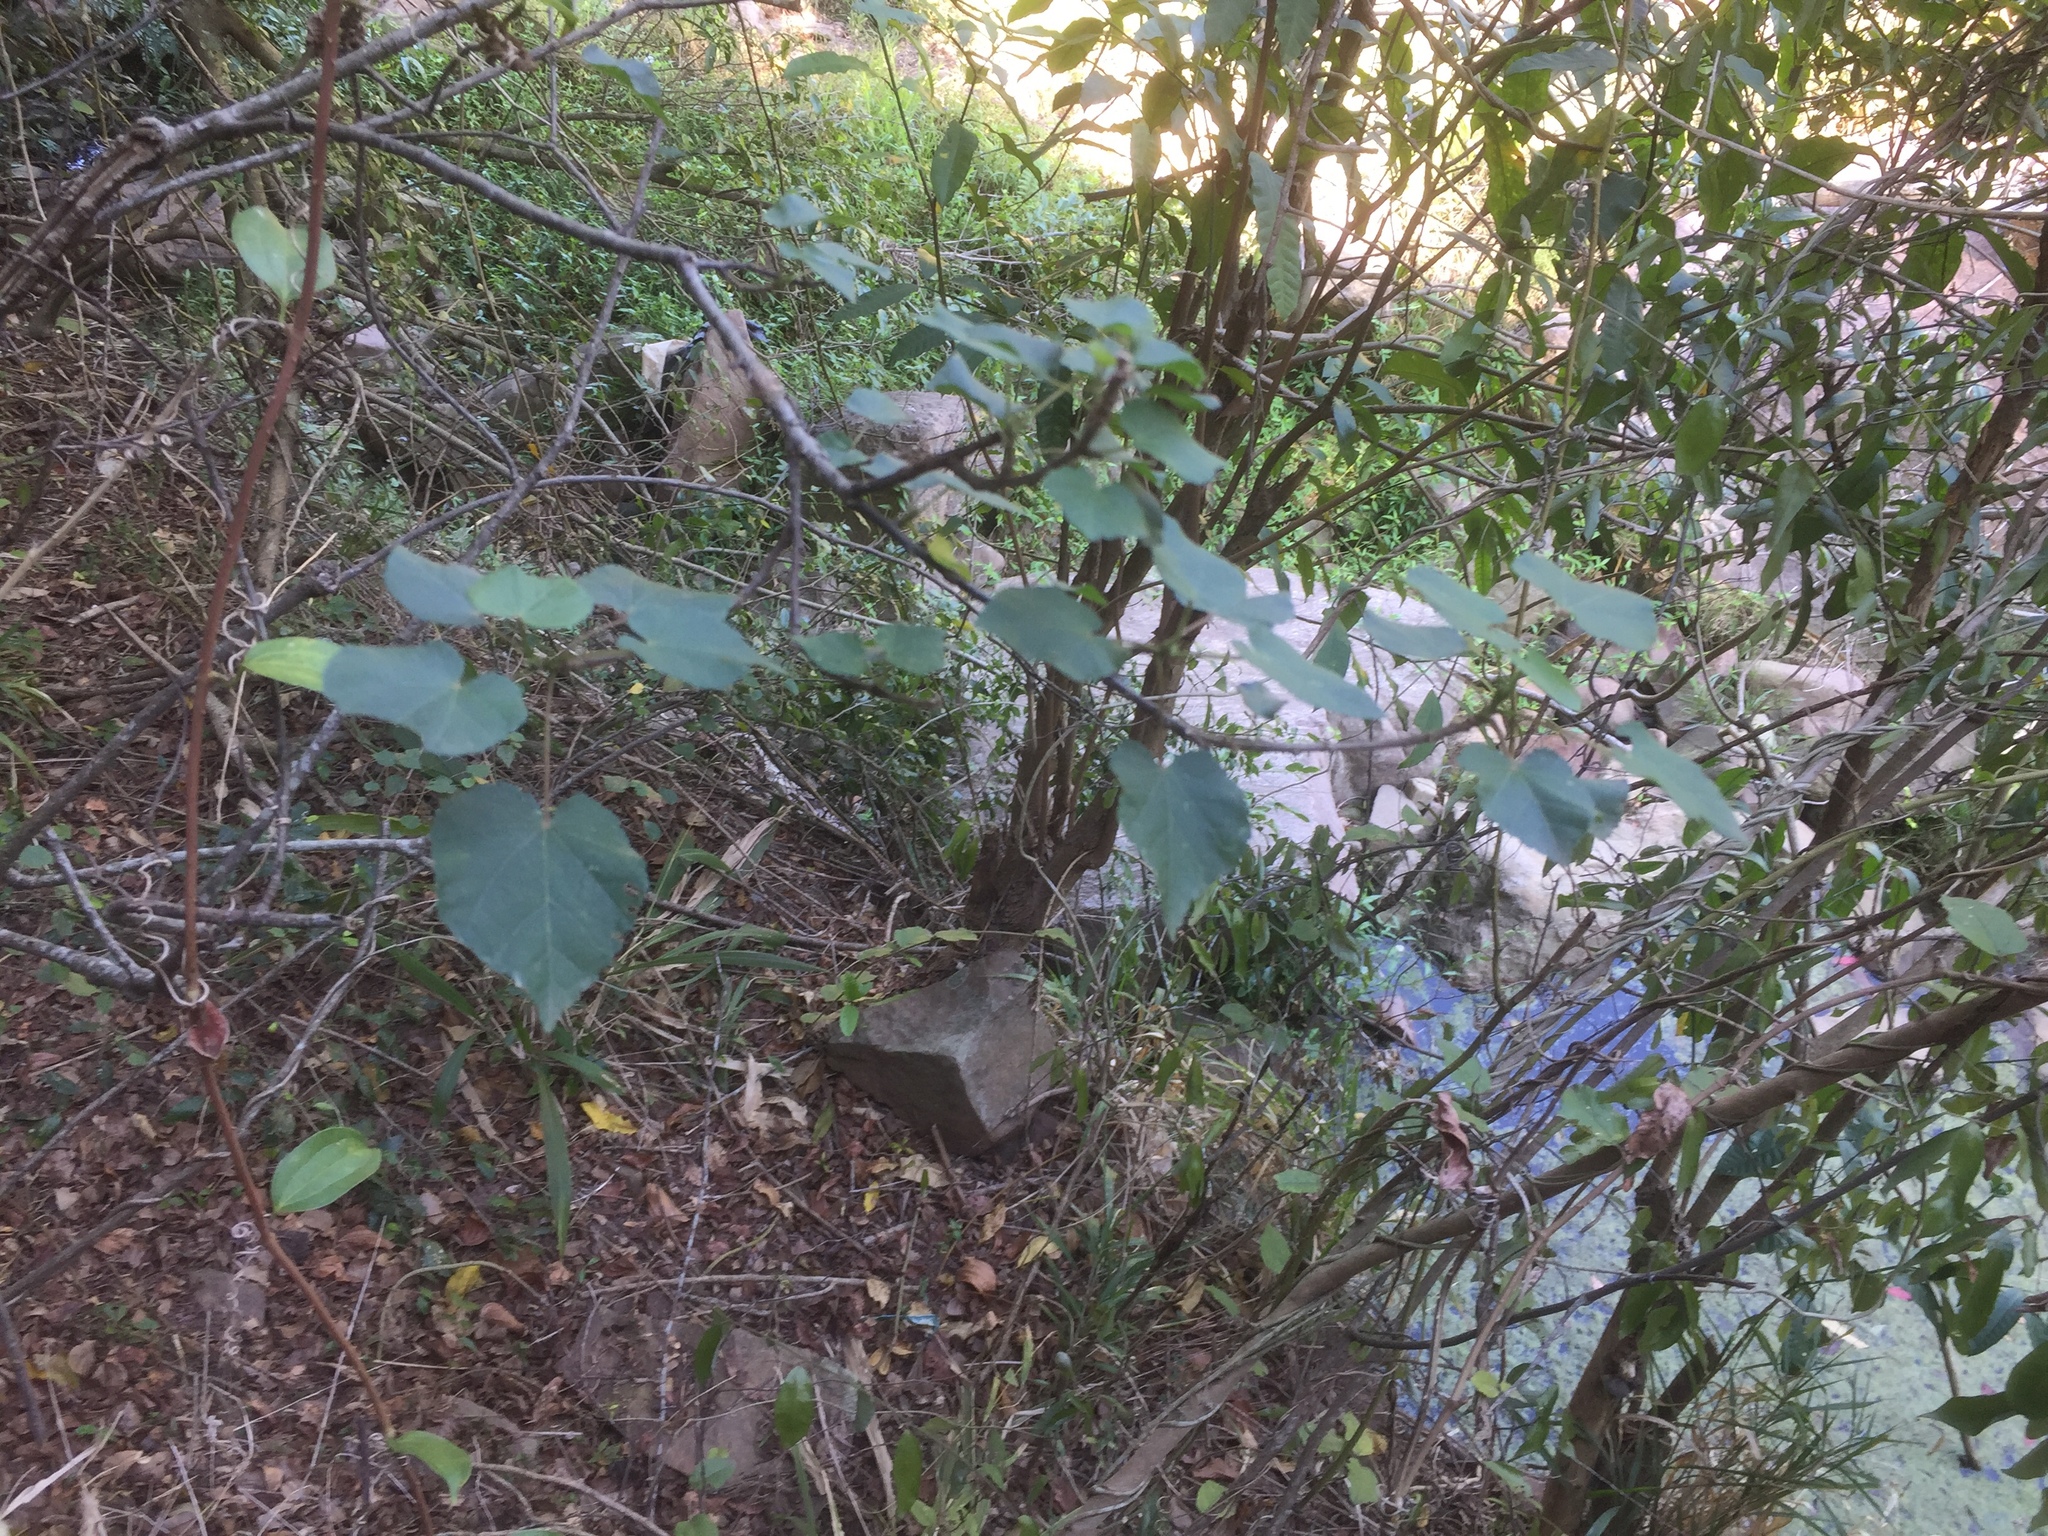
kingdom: Plantae
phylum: Tracheophyta
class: Magnoliopsida
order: Malvales
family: Malvaceae
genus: Dombeya
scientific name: Dombeya tiliacea
